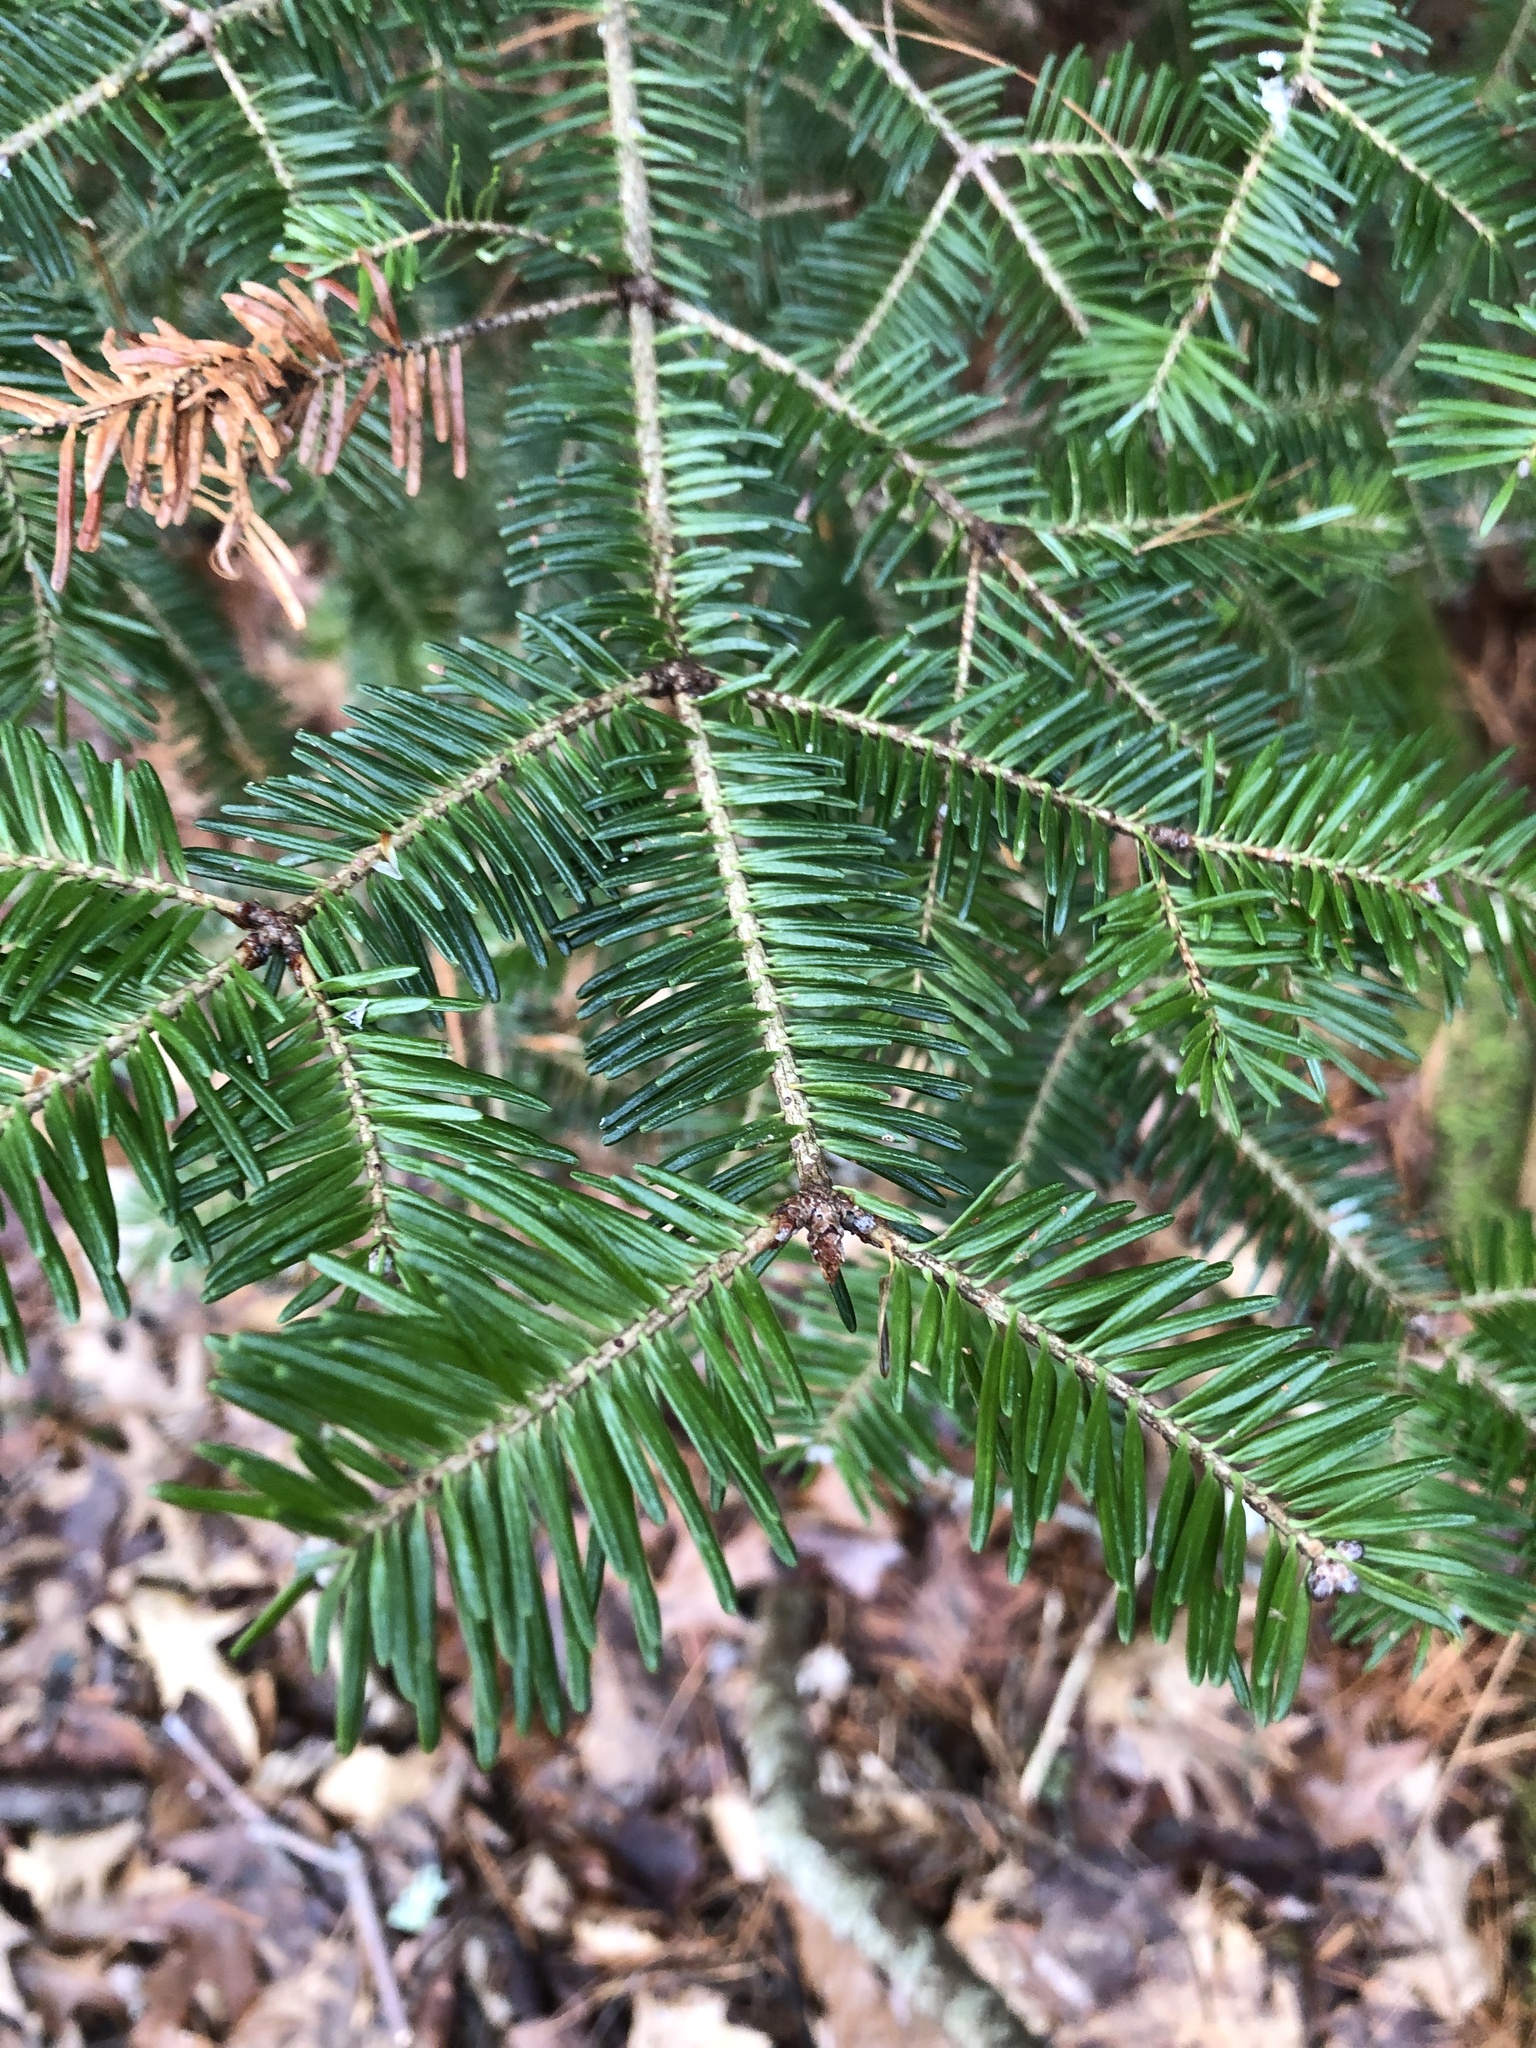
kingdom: Plantae
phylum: Tracheophyta
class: Pinopsida
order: Pinales
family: Pinaceae
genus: Abies
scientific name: Abies balsamea
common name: Balsam fir
